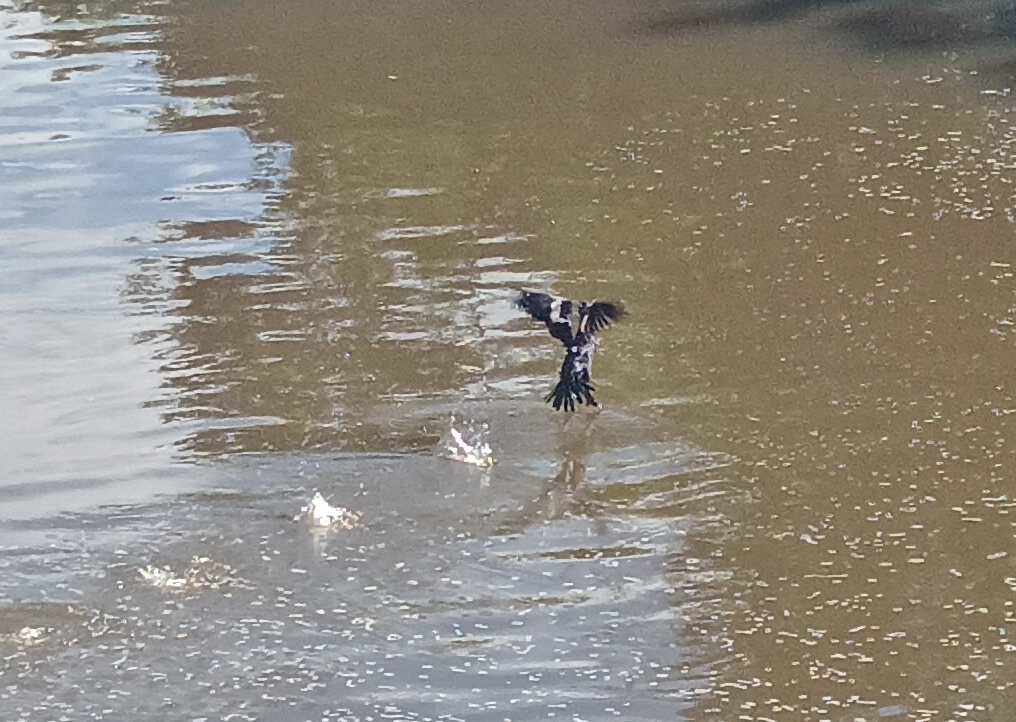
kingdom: Animalia
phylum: Chordata
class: Aves
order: Suliformes
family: Phalacrocoracidae
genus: Phalacrocorax
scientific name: Phalacrocorax brasilianus
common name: Neotropic cormorant
